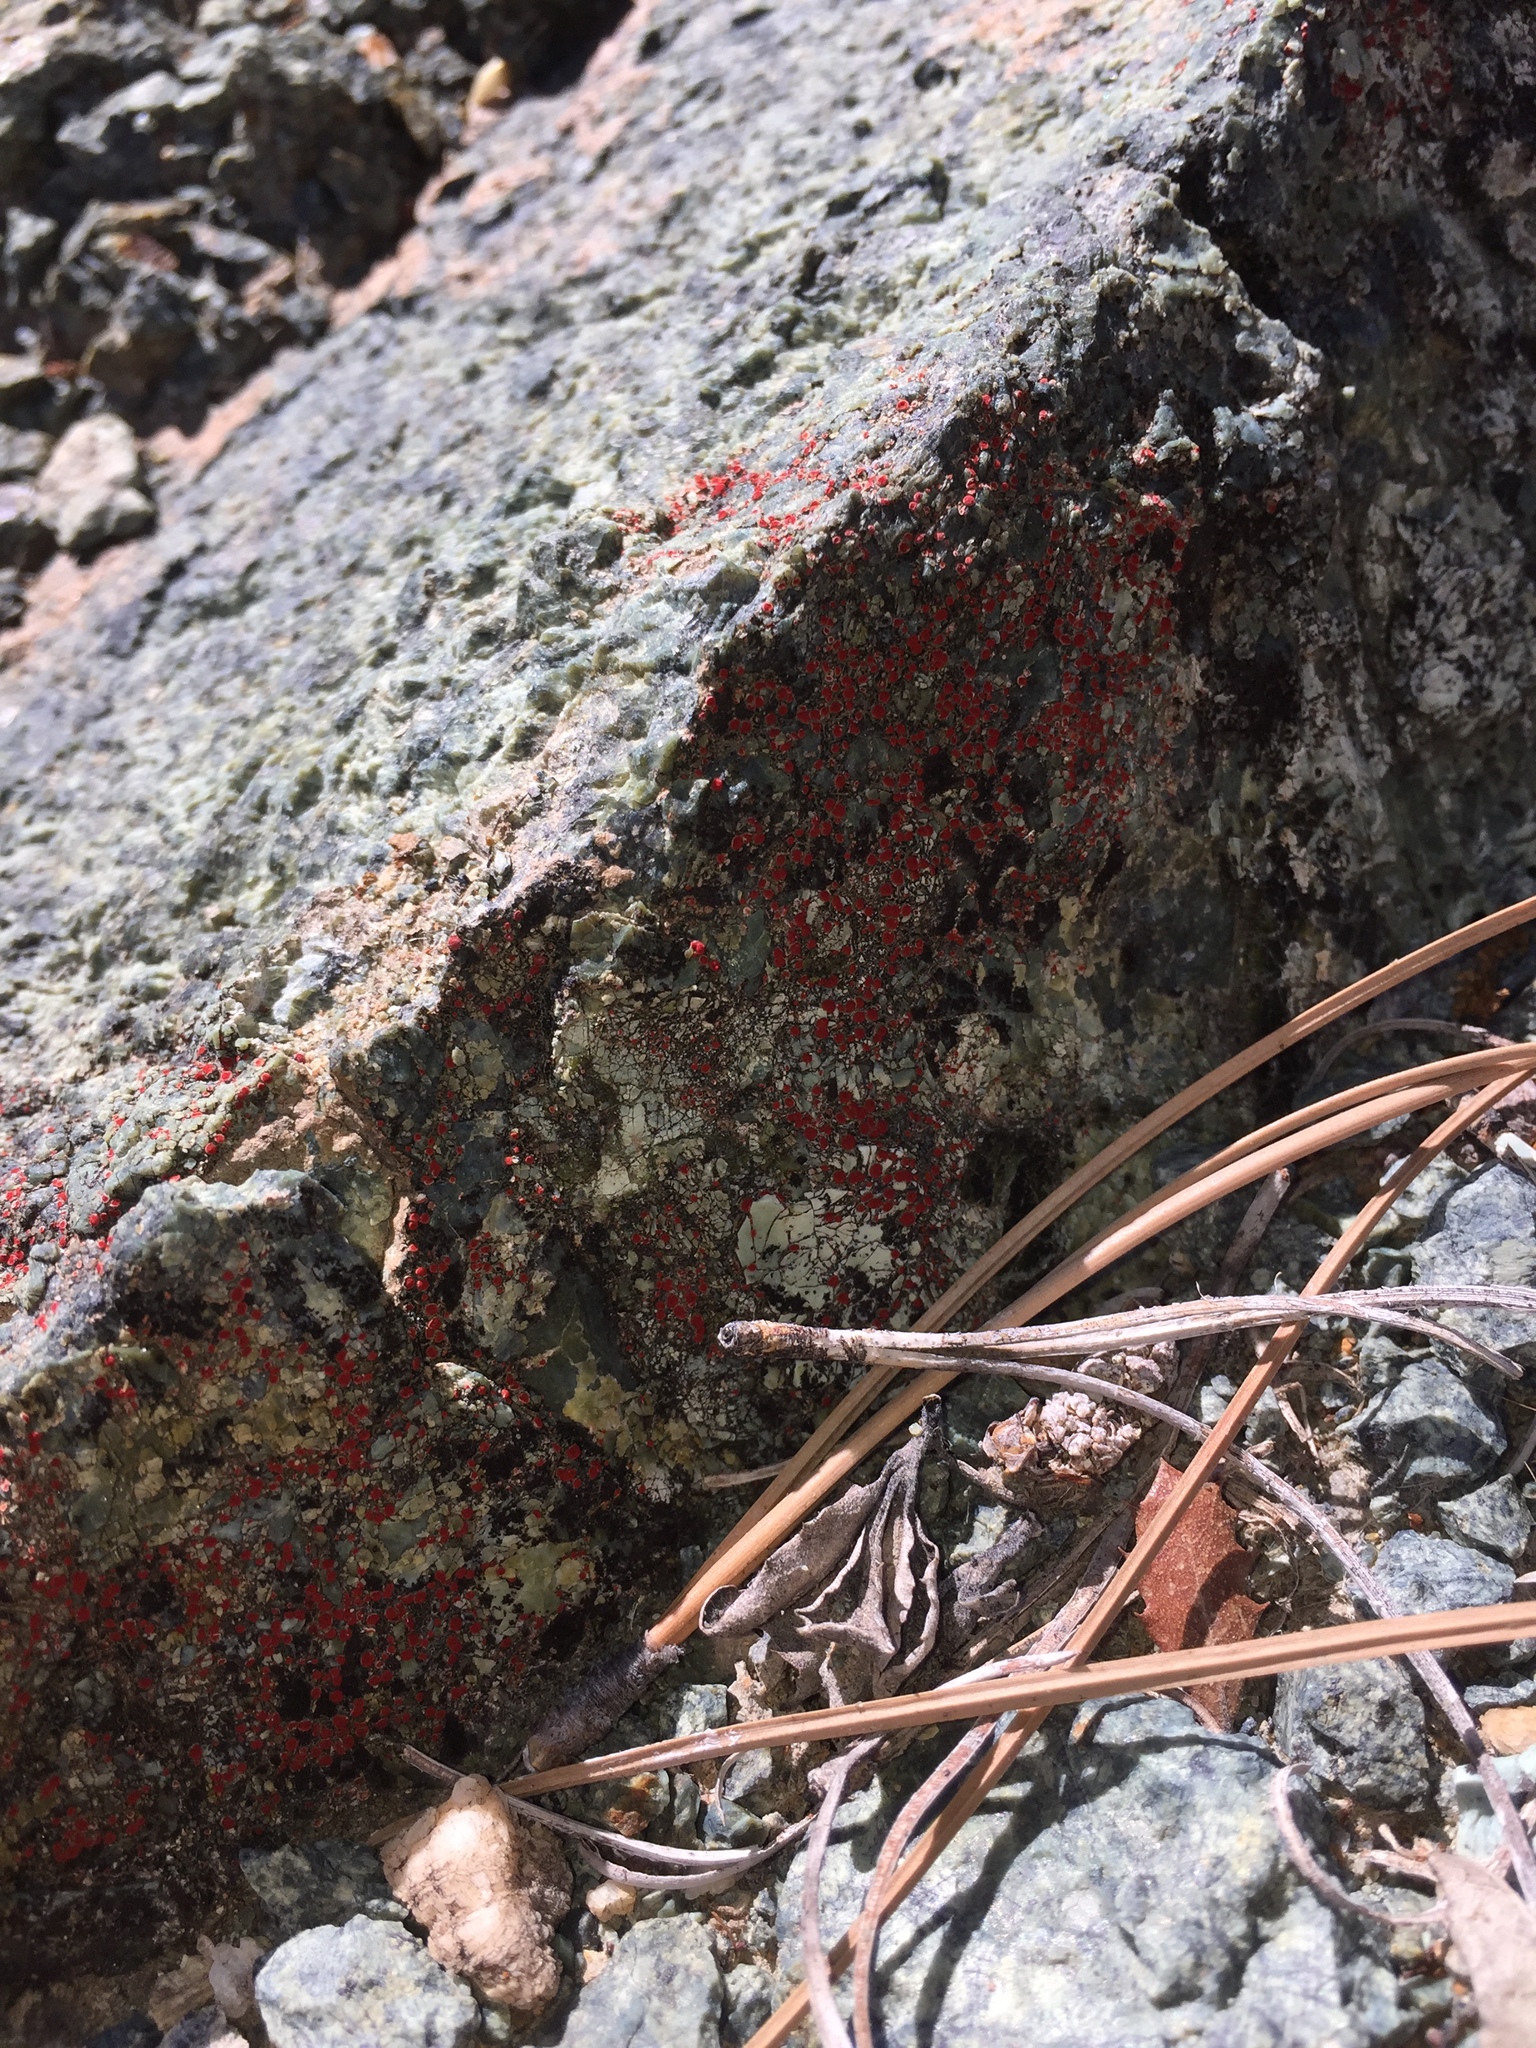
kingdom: Fungi
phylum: Ascomycota
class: Lecanoromycetes
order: Teloschistales
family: Teloschistaceae
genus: Tomnashia
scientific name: Tomnashia luteominia
